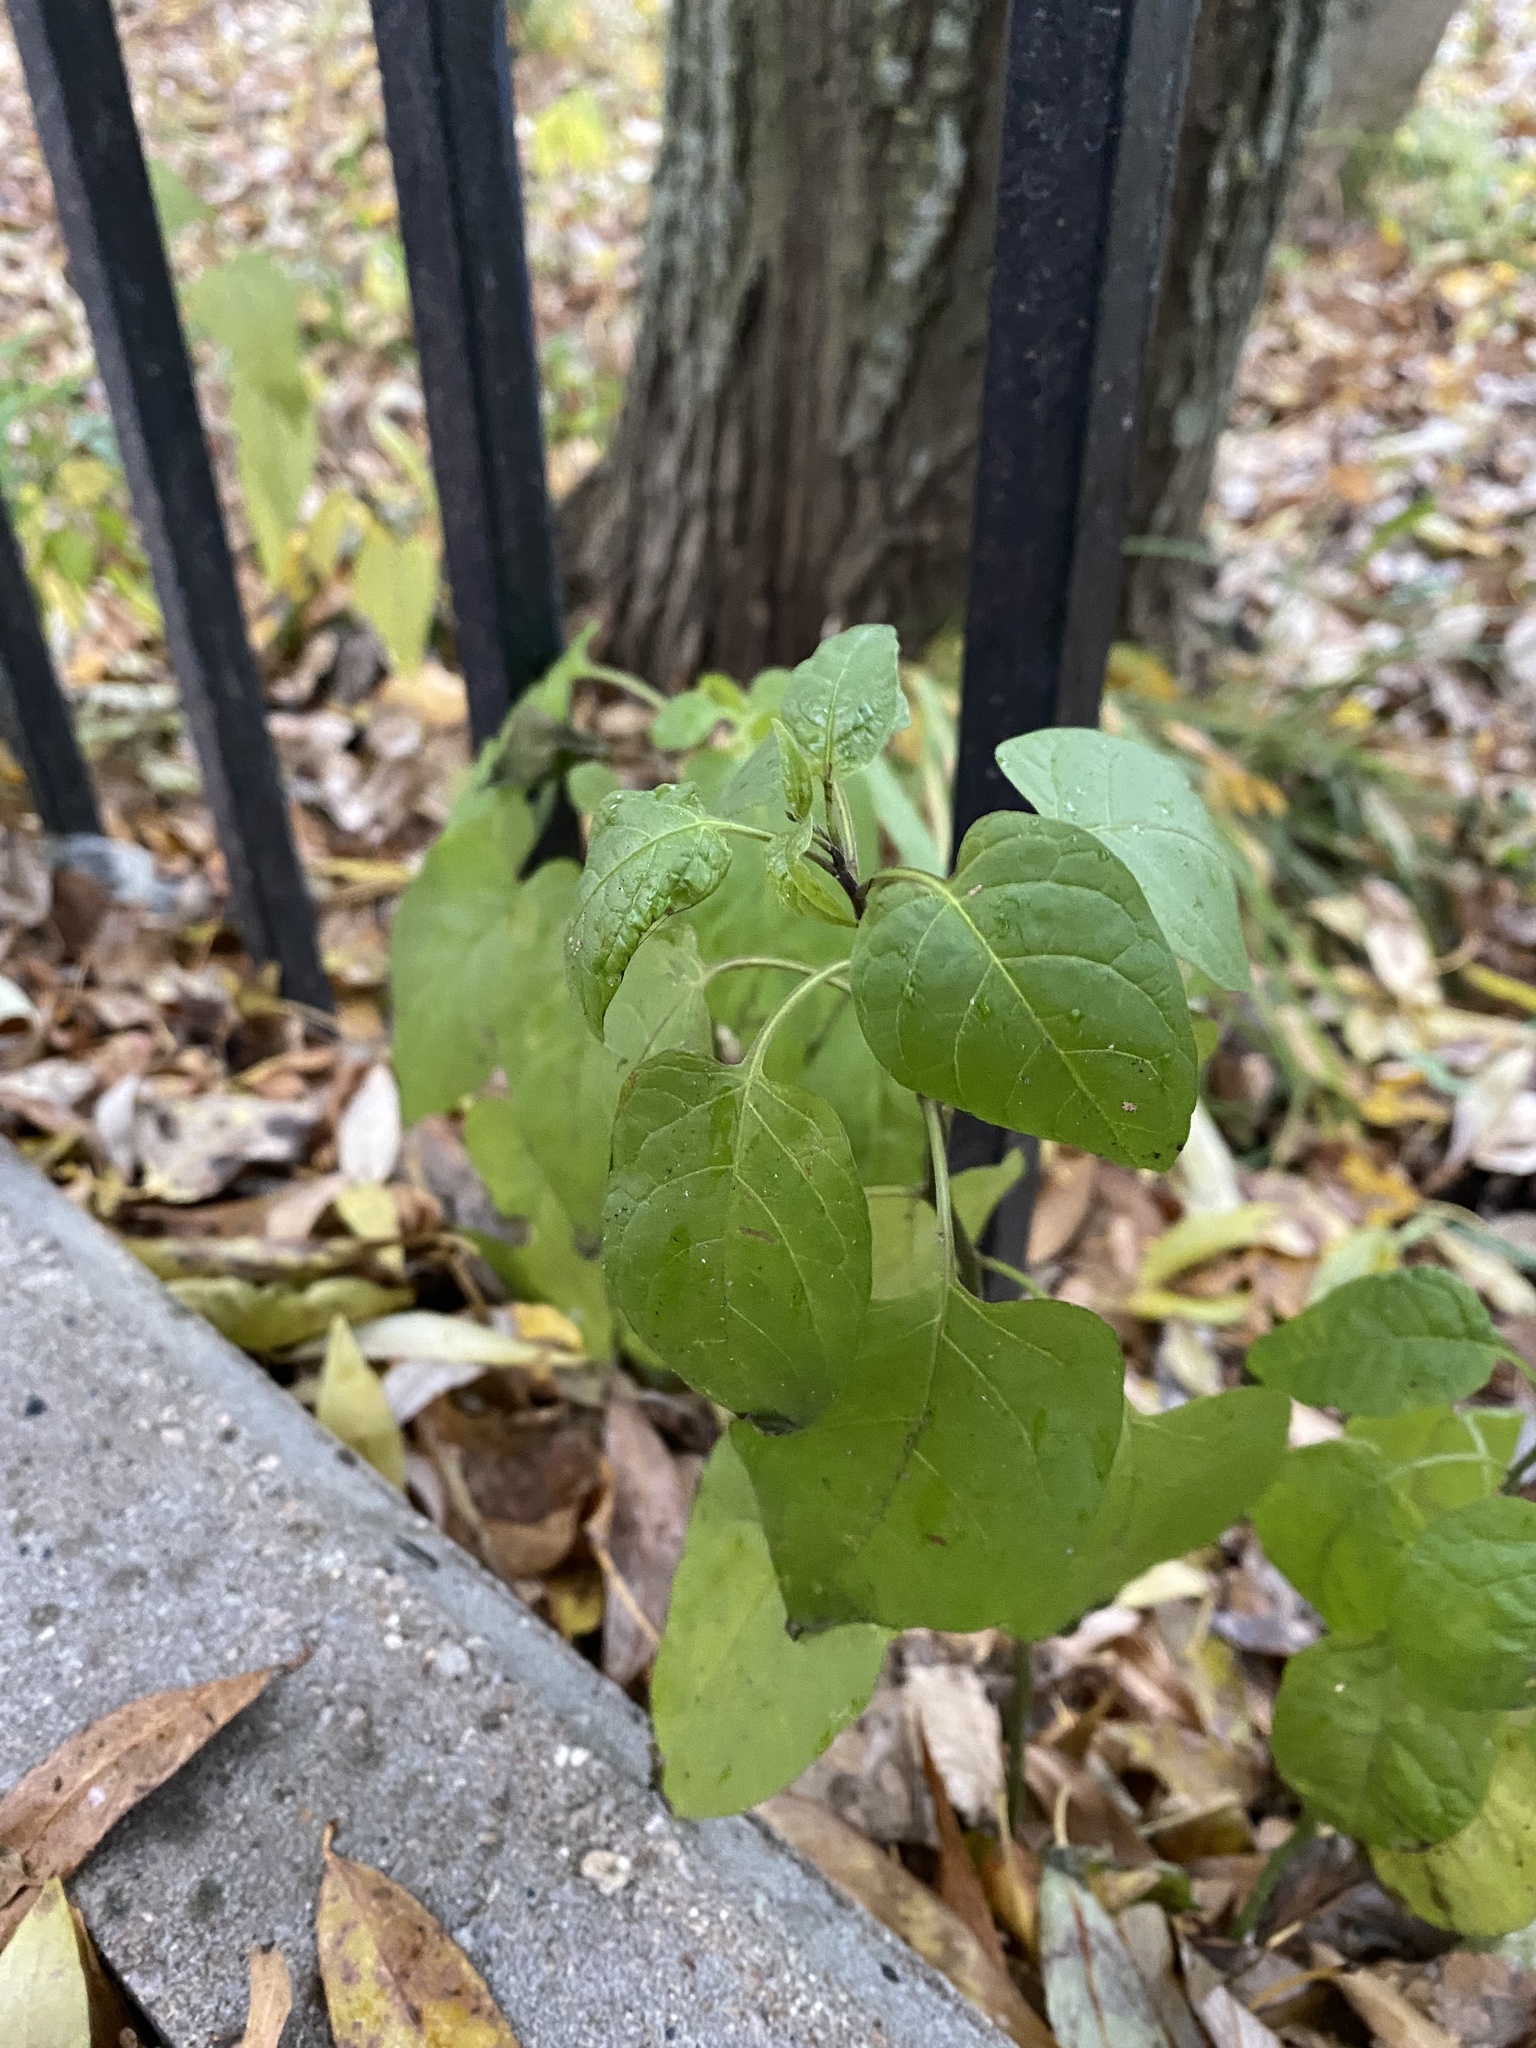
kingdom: Plantae
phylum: Tracheophyta
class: Magnoliopsida
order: Solanales
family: Solanaceae
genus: Solanum
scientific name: Solanum dulcamara
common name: Climbing nightshade
